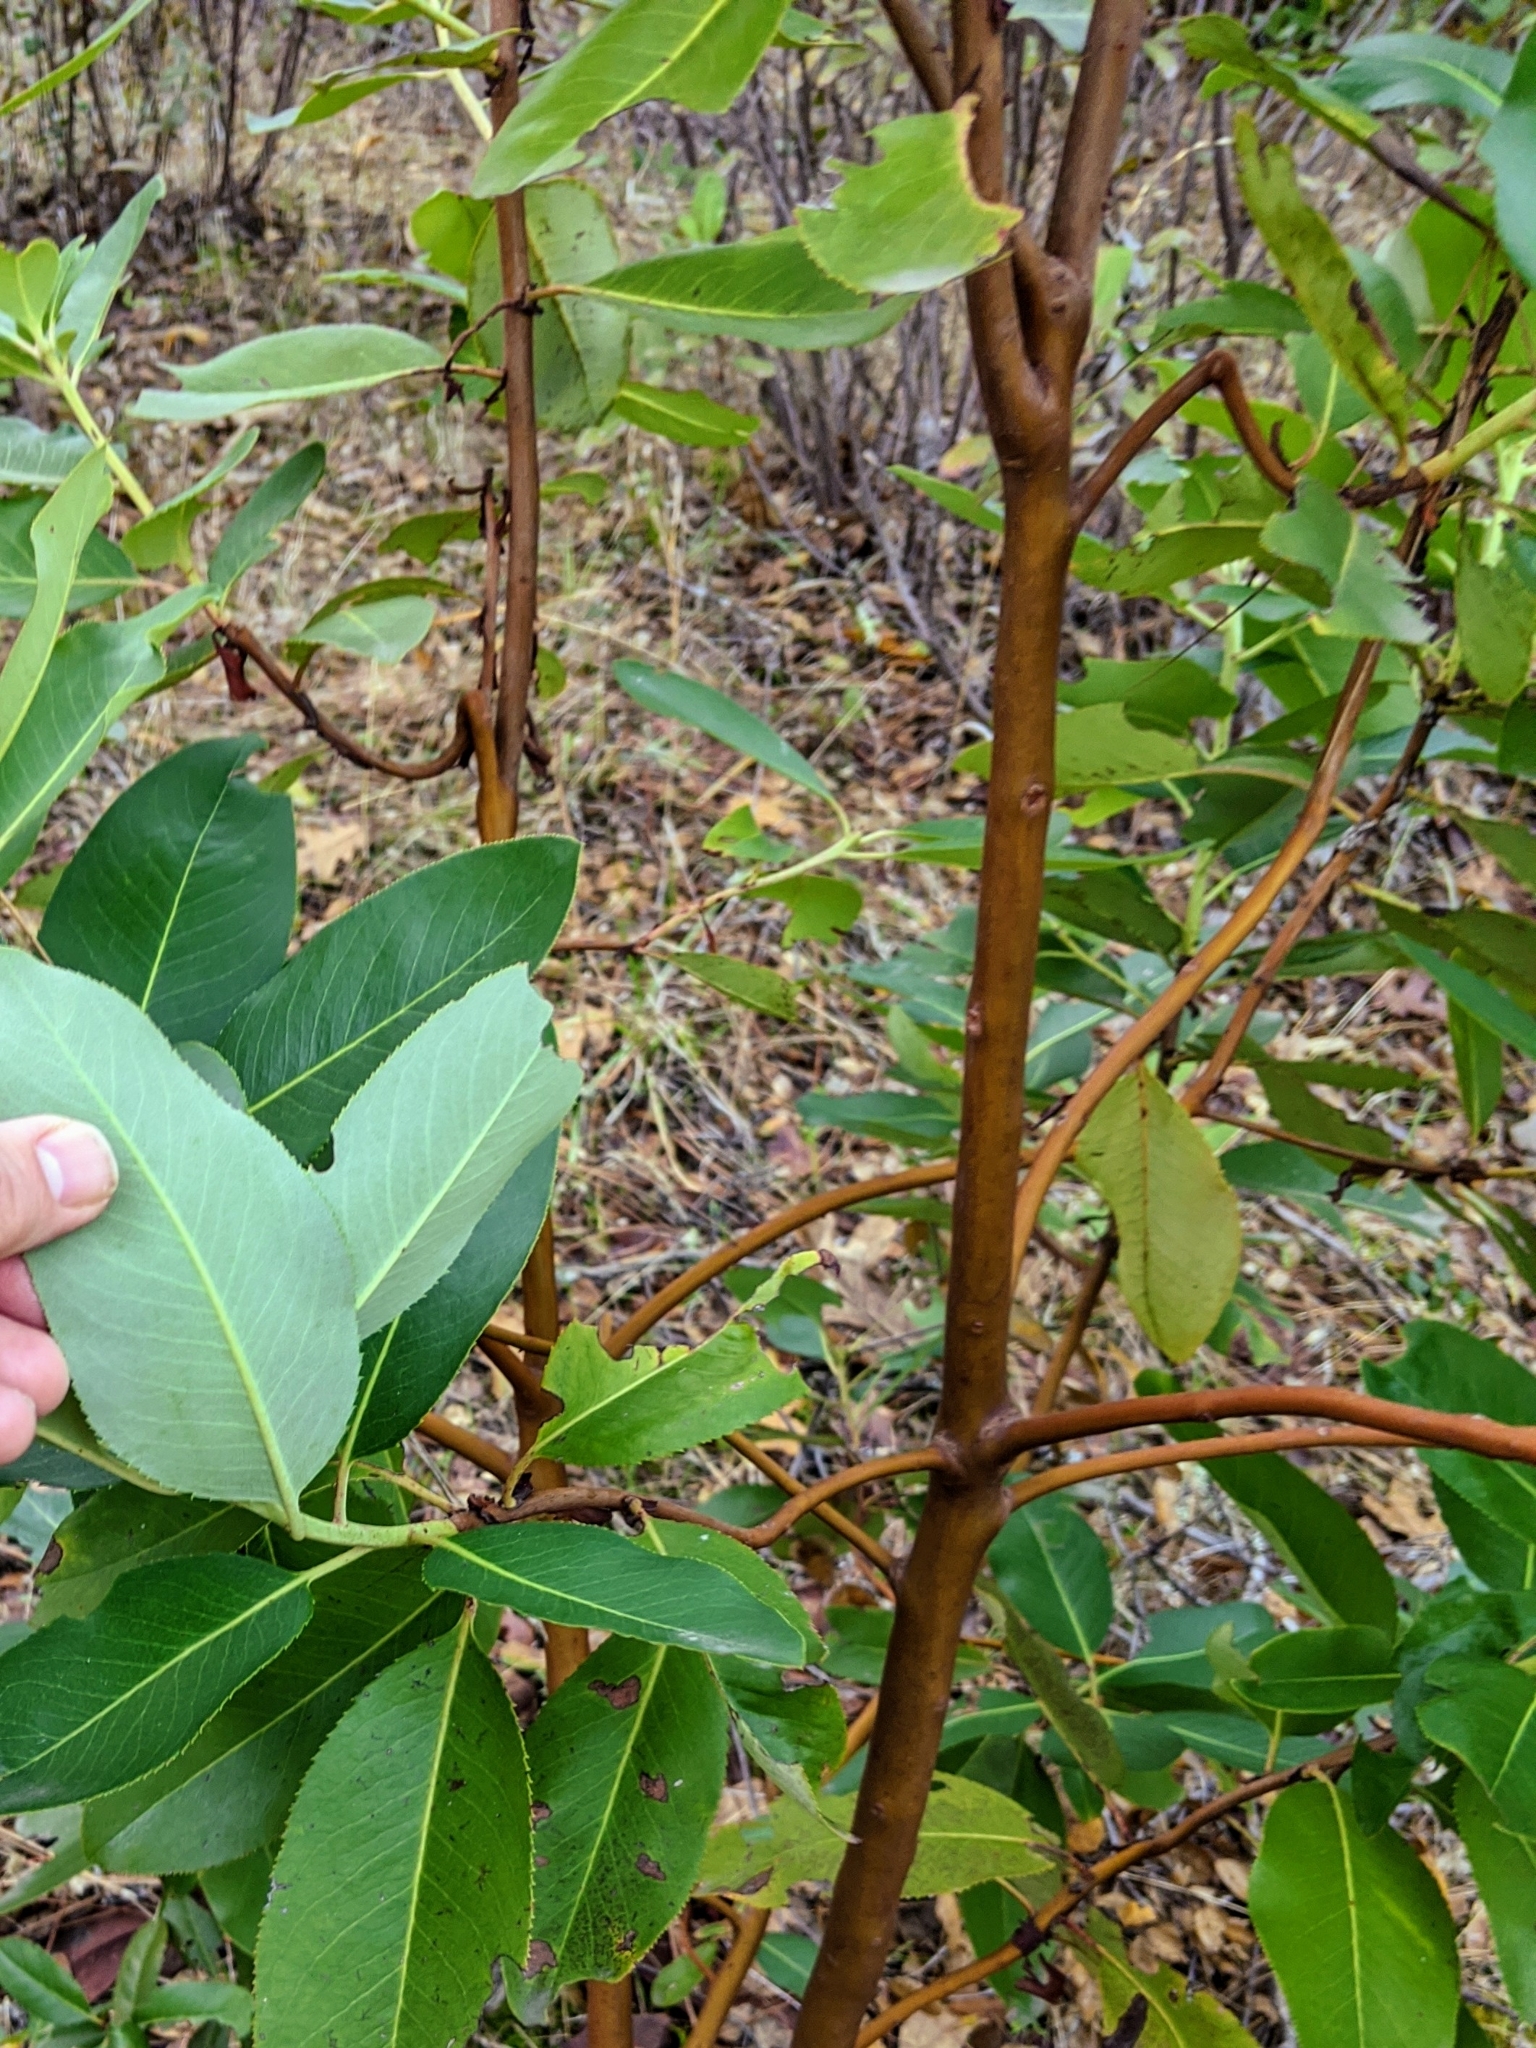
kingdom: Plantae
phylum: Tracheophyta
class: Magnoliopsida
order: Ericales
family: Ericaceae
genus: Arbutus
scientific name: Arbutus menziesii
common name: Pacific madrone
